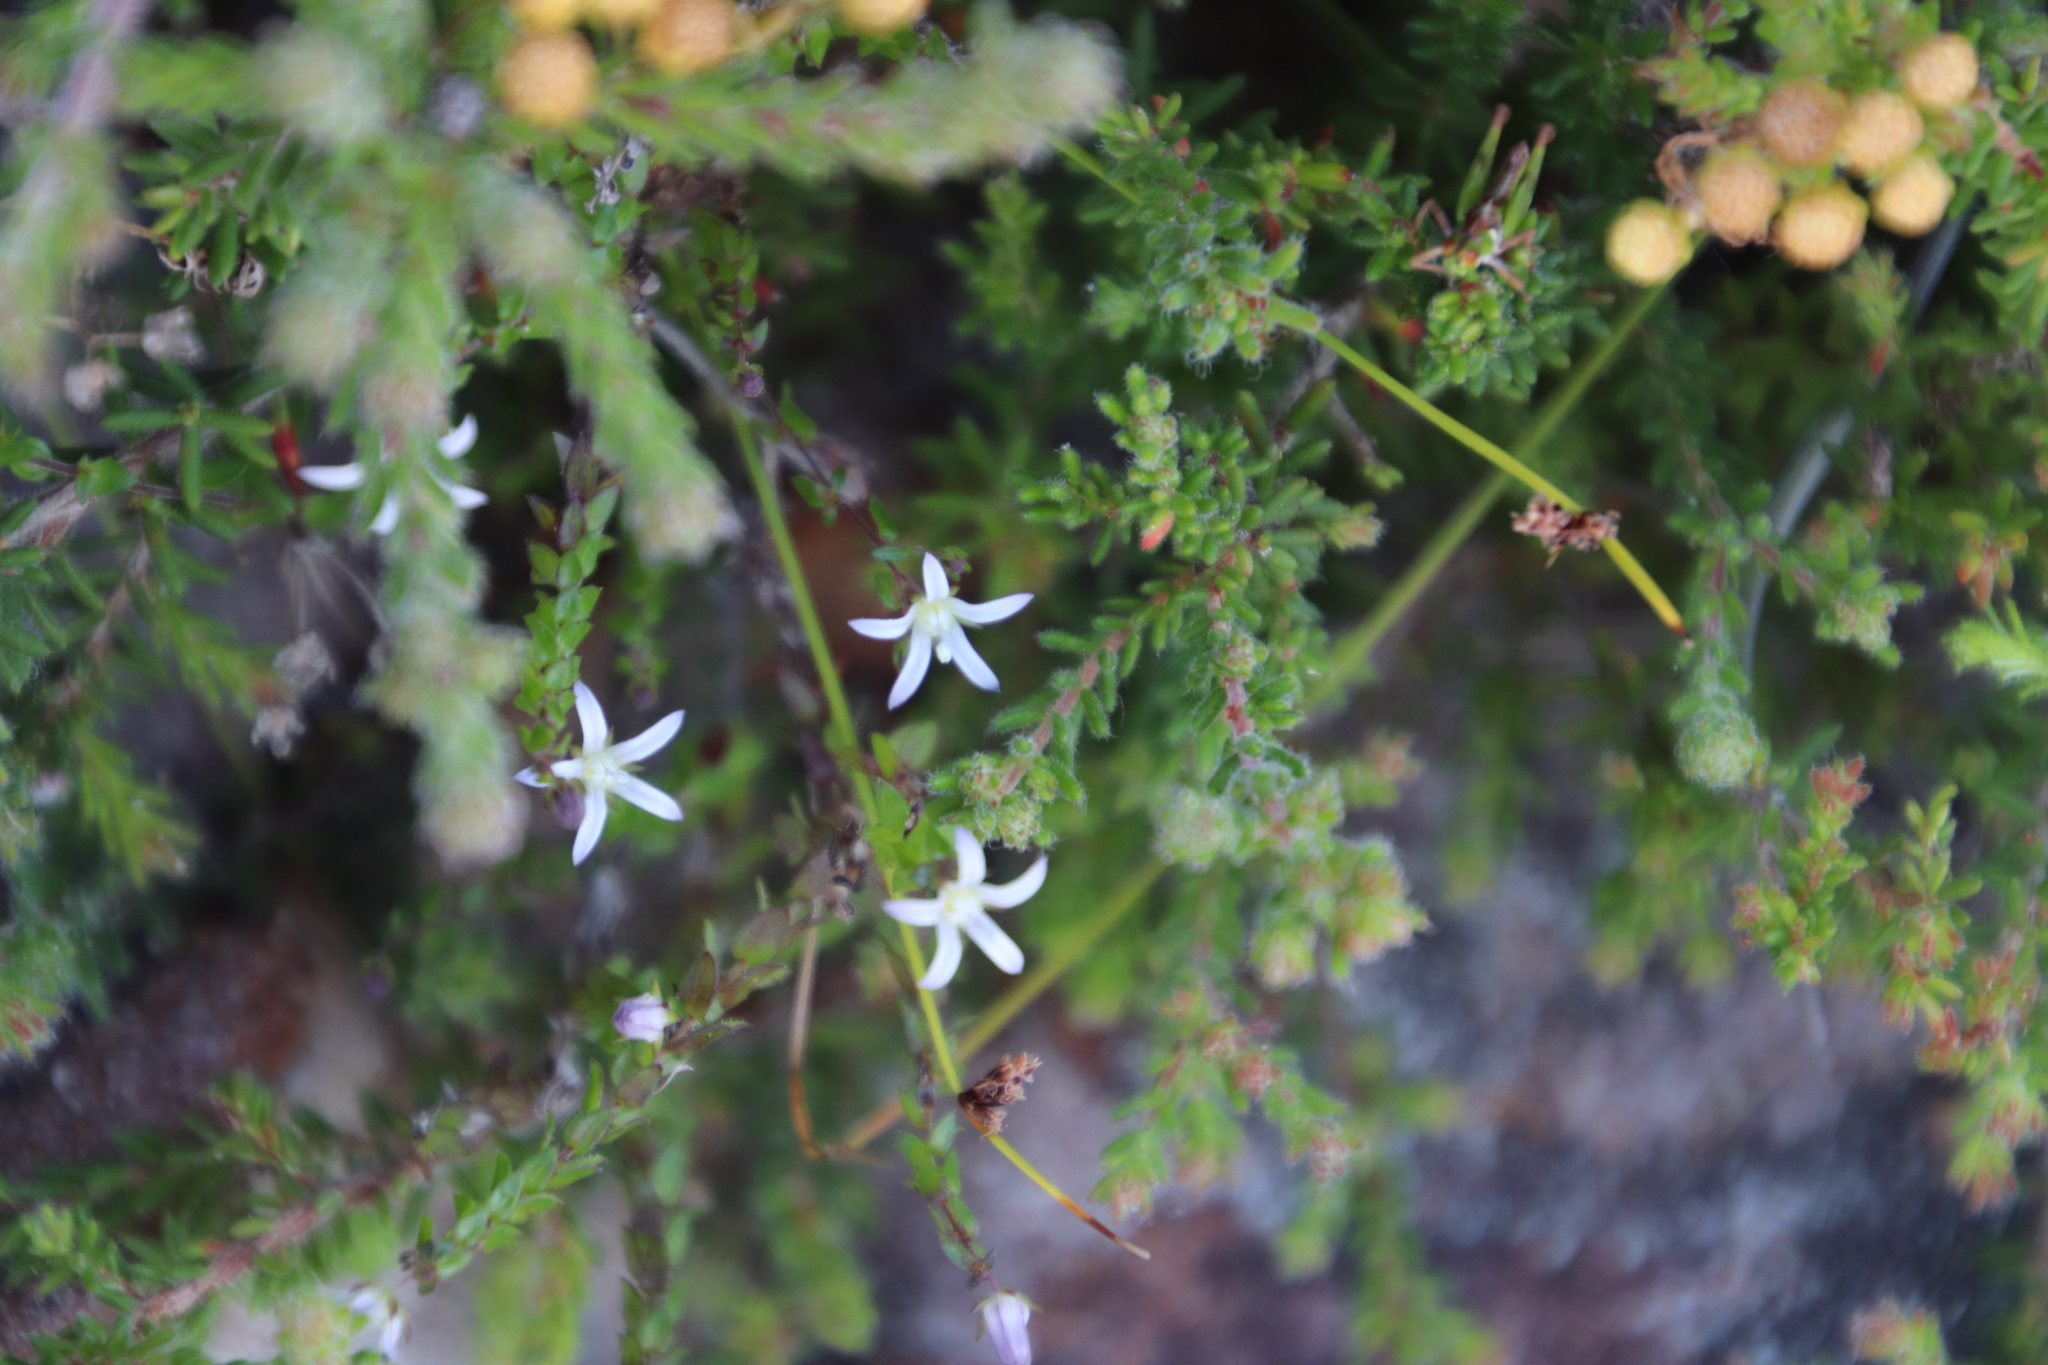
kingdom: Plantae
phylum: Tracheophyta
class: Magnoliopsida
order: Asterales
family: Campanulaceae
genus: Wahlenbergia
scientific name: Wahlenbergia parvifolia
